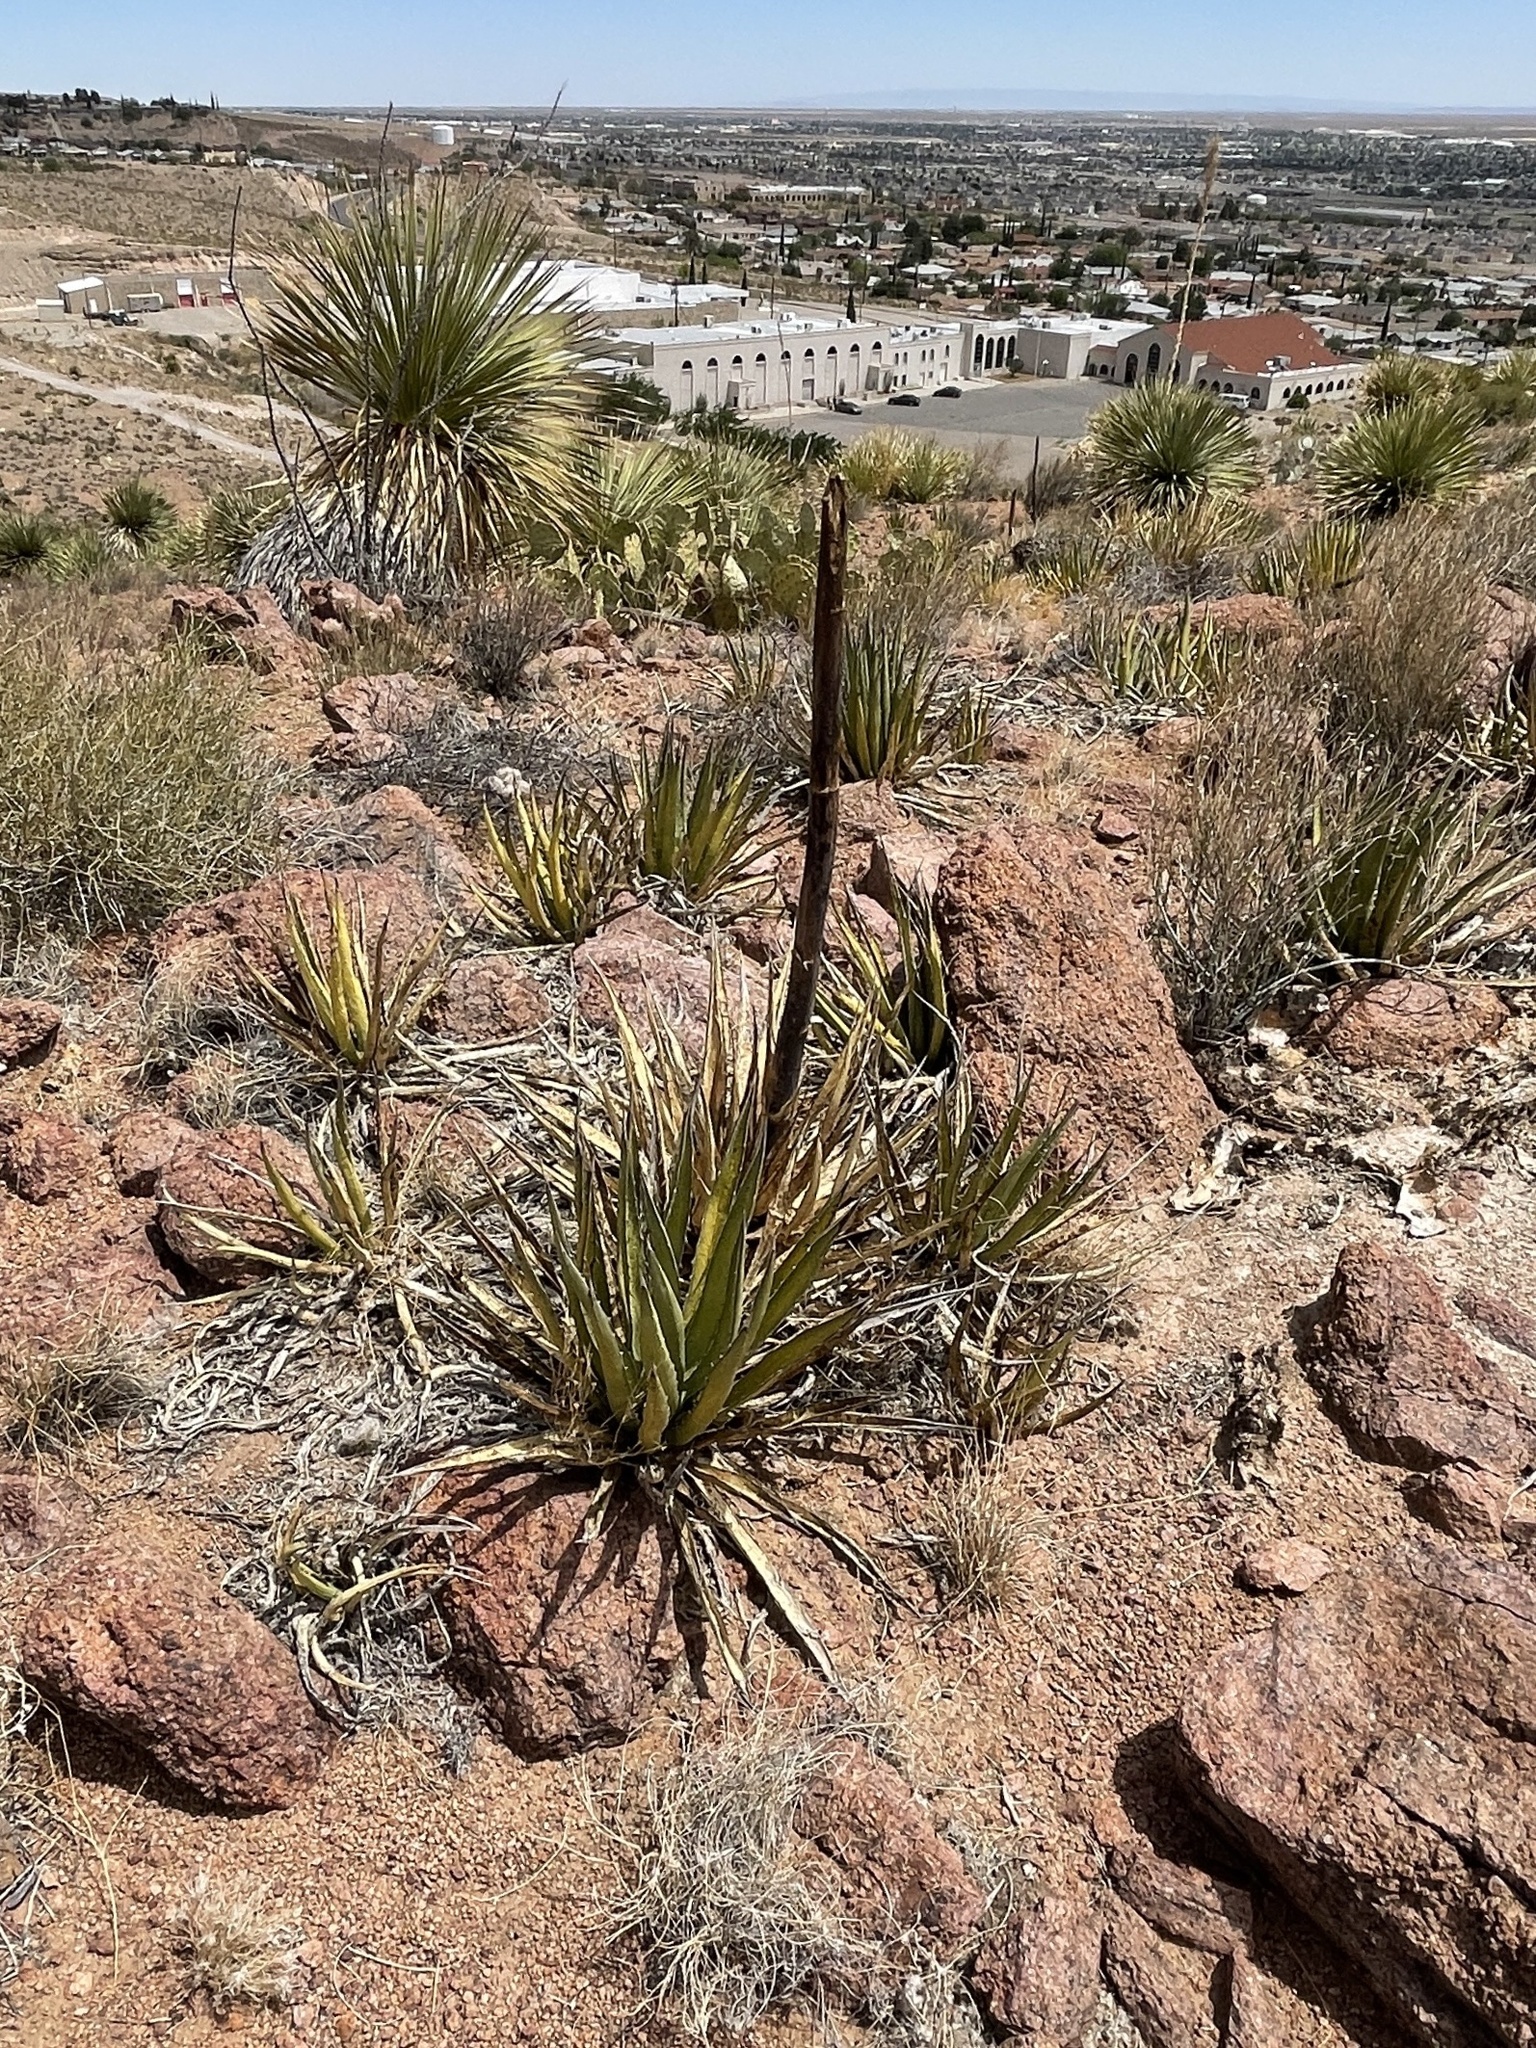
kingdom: Plantae
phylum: Tracheophyta
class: Liliopsida
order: Asparagales
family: Asparagaceae
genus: Agave
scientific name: Agave lechuguilla
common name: Lecheguilla agave
